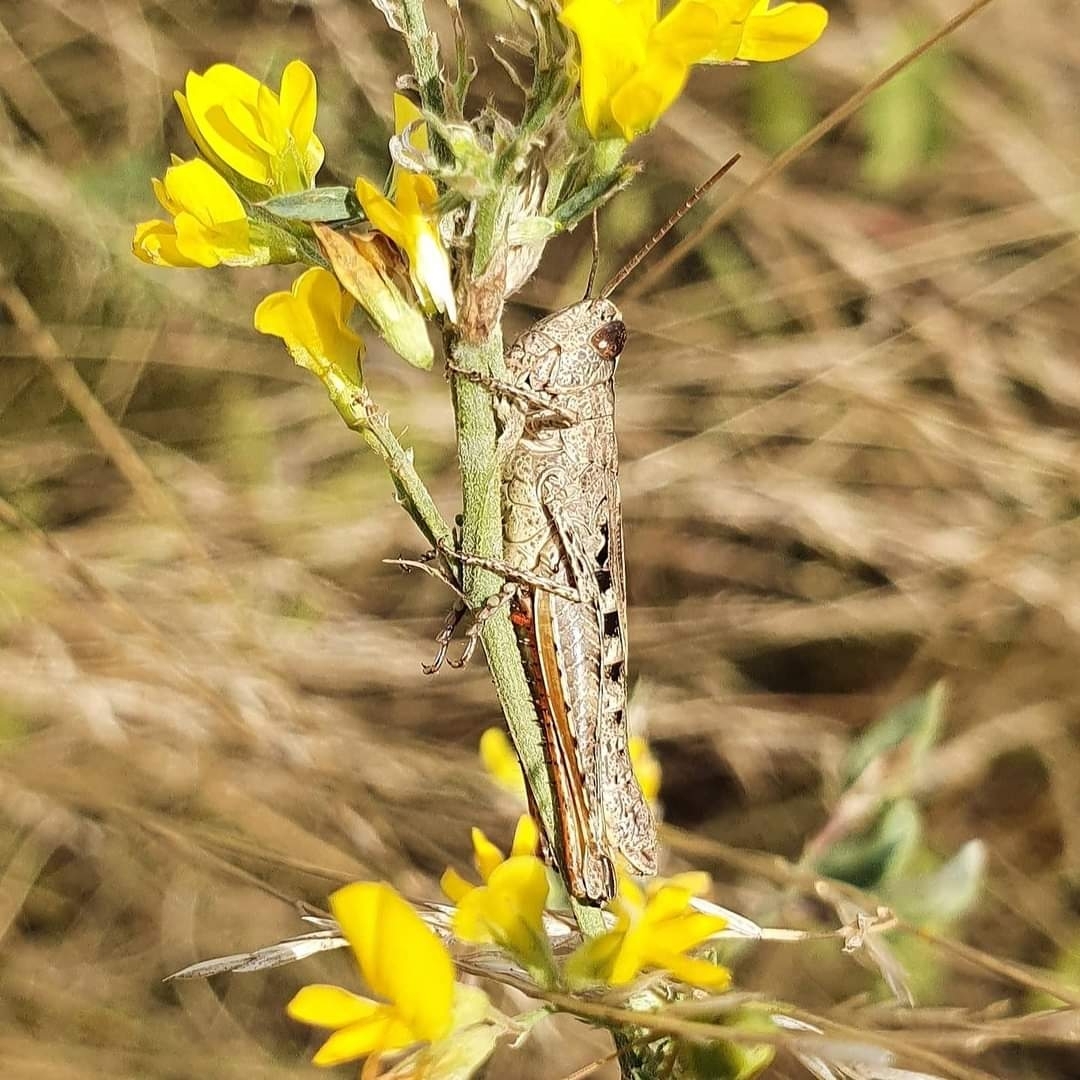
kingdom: Animalia
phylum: Arthropoda
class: Insecta
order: Orthoptera
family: Acrididae
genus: Omocestus
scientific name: Omocestus rufipes
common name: Woodland grasshopper
